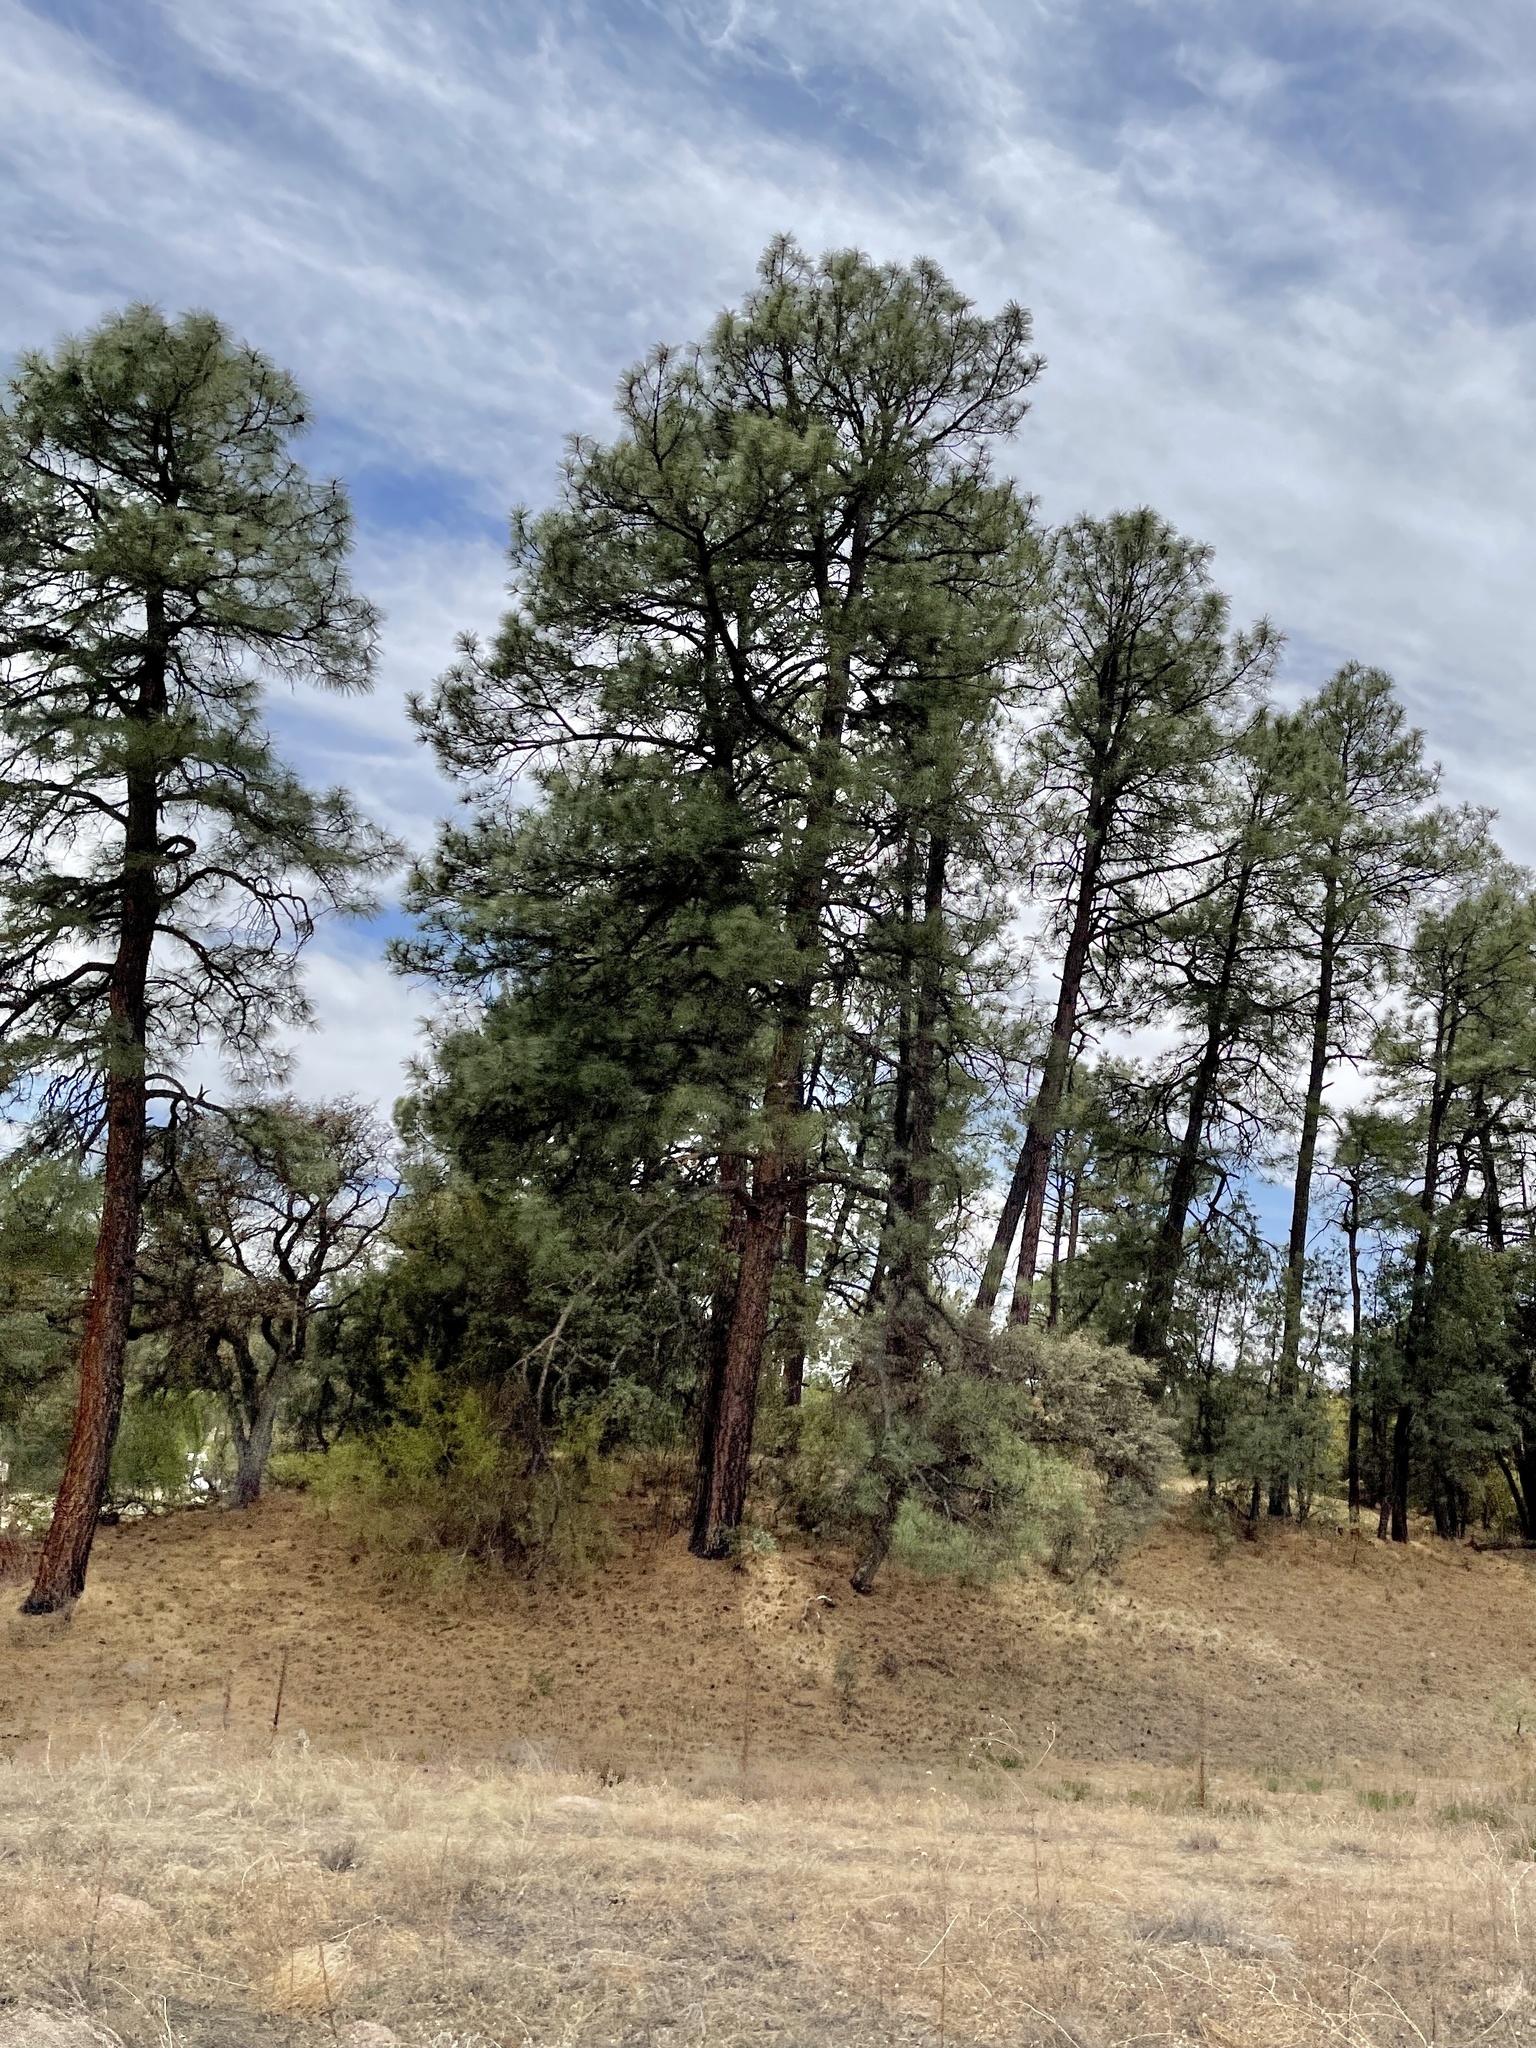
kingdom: Plantae
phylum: Tracheophyta
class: Pinopsida
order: Pinales
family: Pinaceae
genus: Pinus
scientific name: Pinus ponderosa
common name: Western yellow-pine
